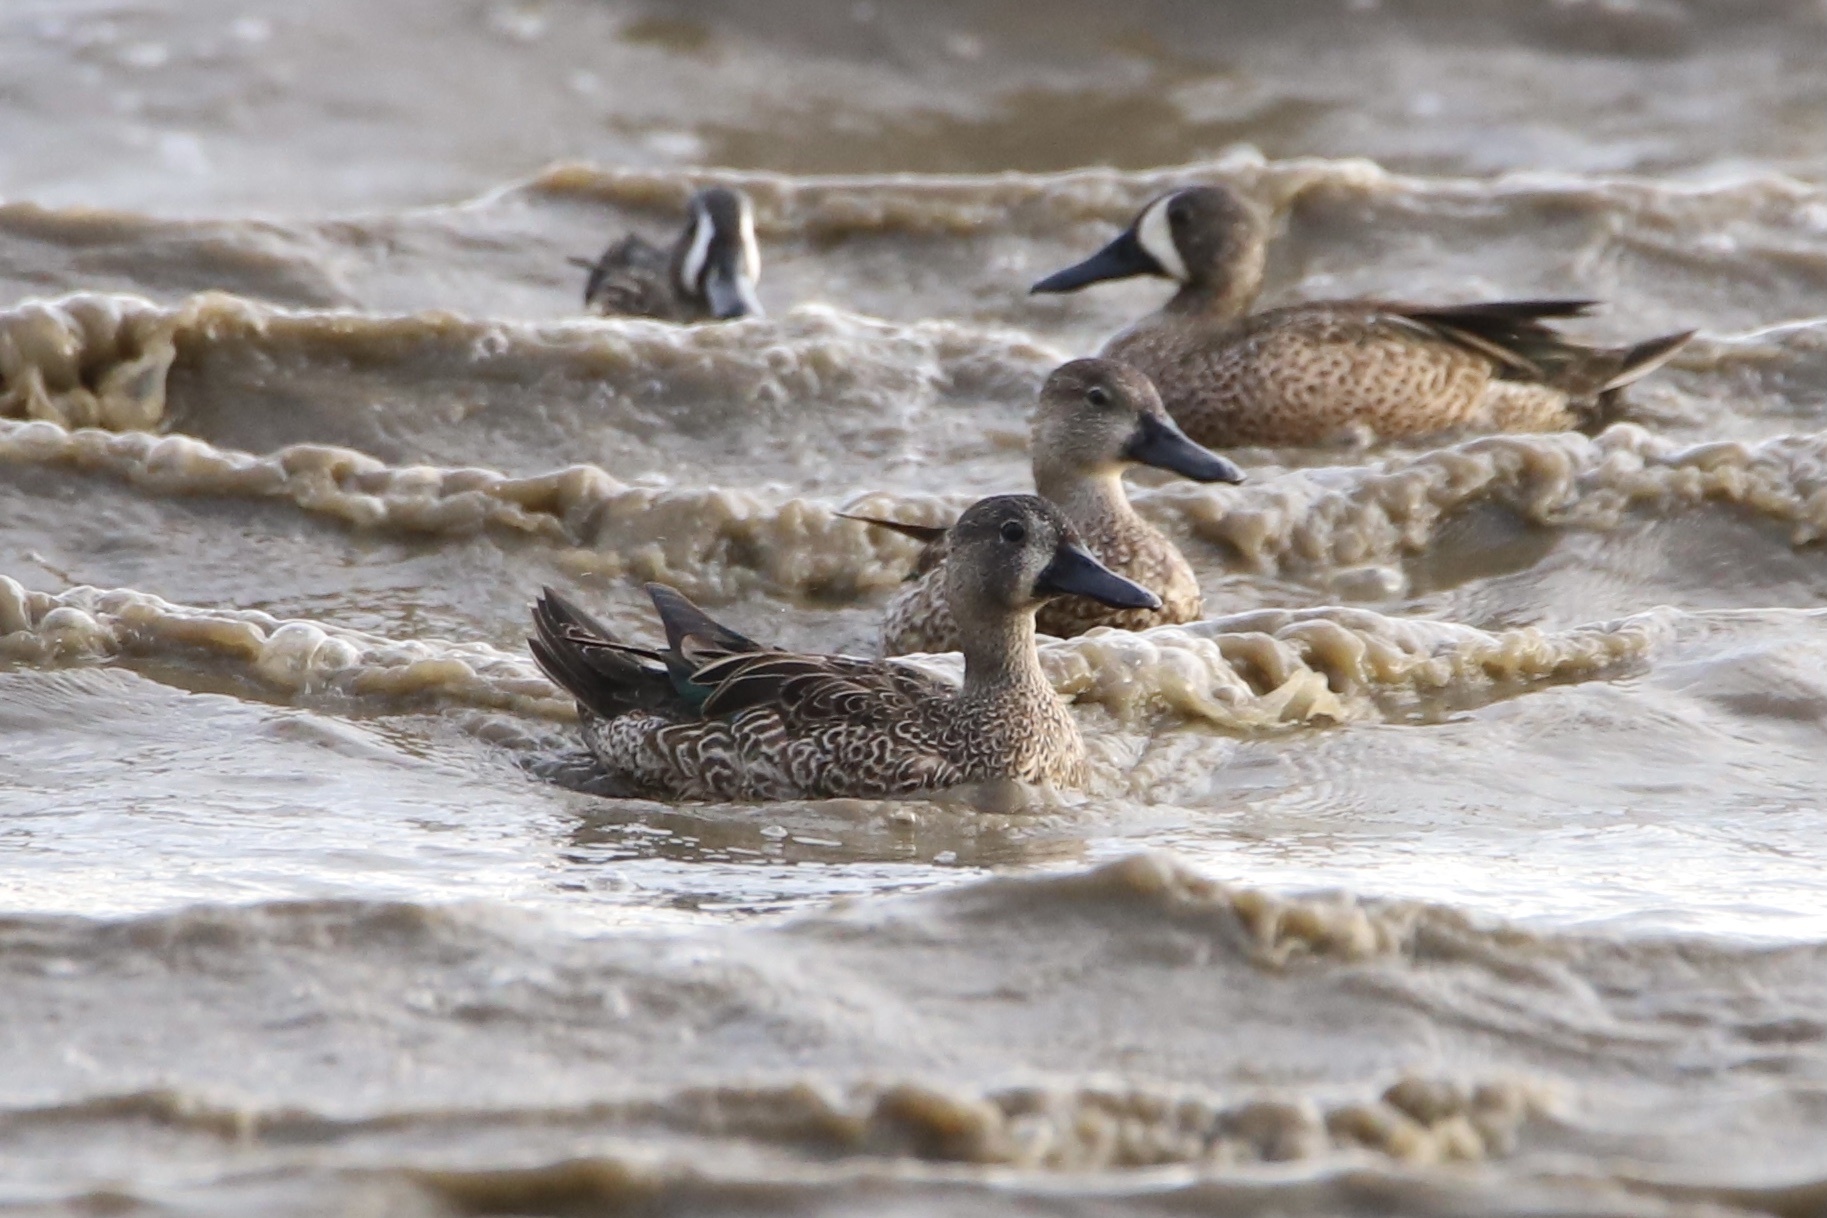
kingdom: Animalia
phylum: Chordata
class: Aves
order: Anseriformes
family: Anatidae
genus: Spatula
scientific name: Spatula discors
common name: Blue-winged teal
